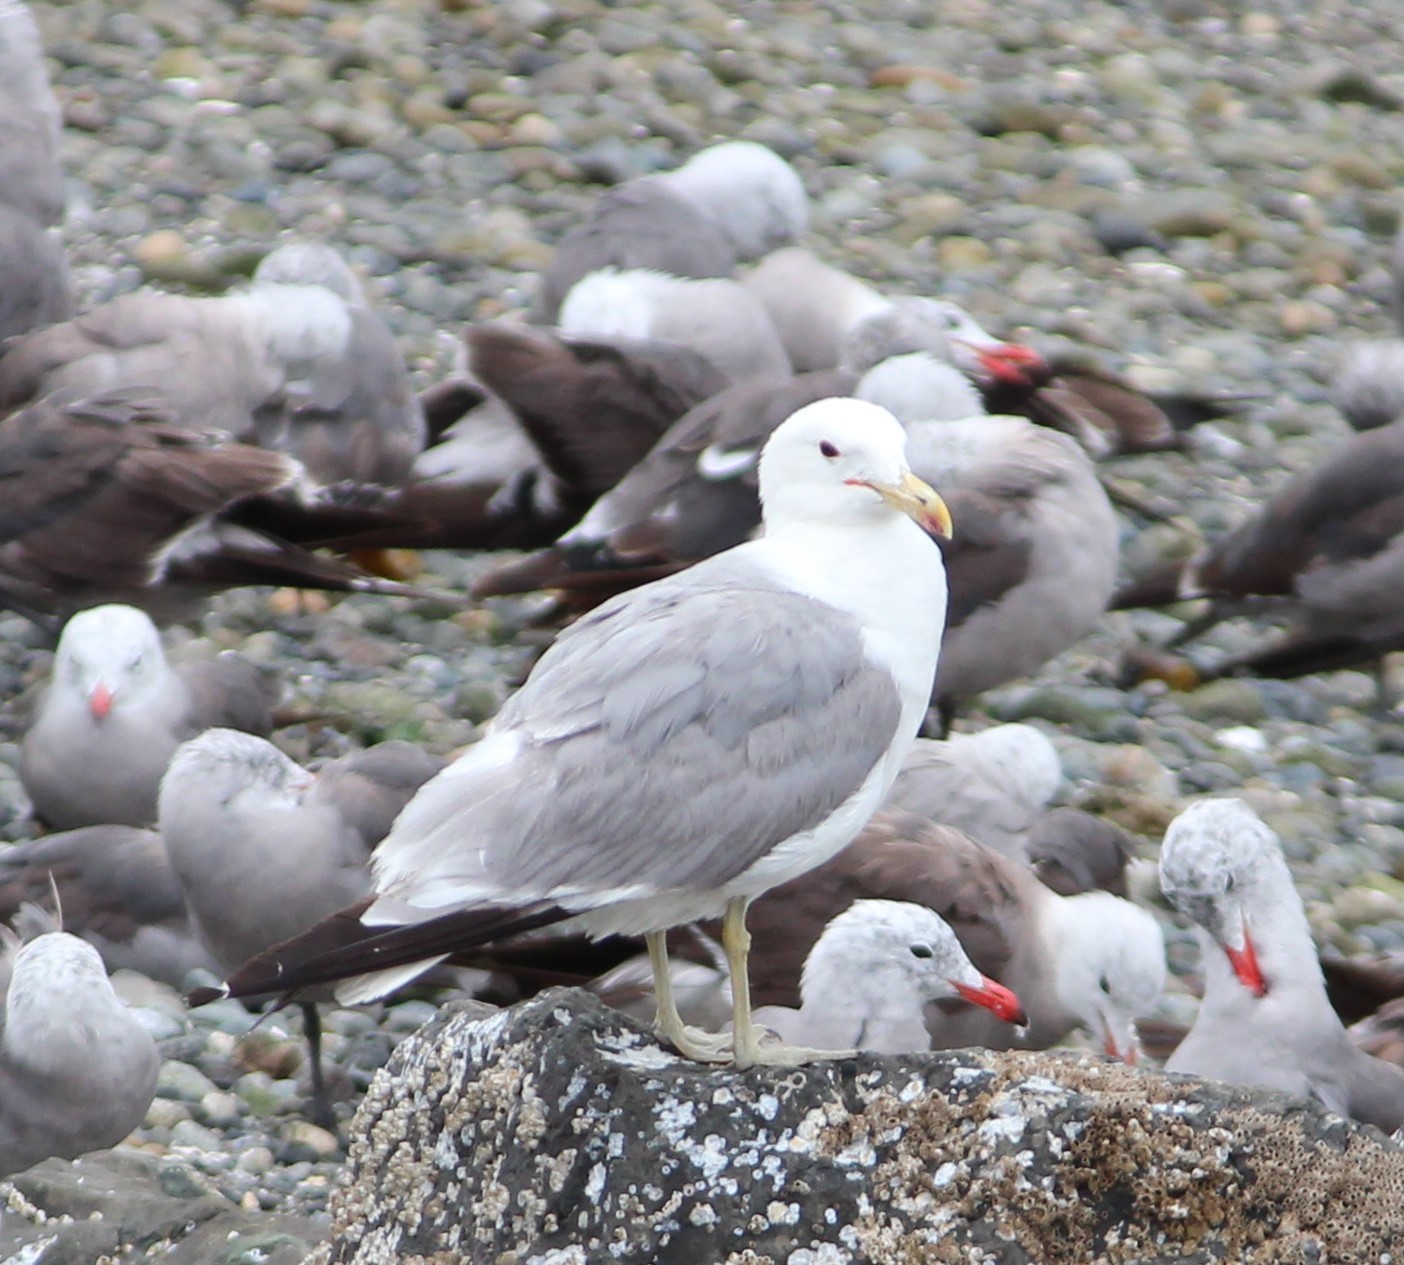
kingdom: Animalia
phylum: Chordata
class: Aves
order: Charadriiformes
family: Laridae
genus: Larus
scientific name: Larus californicus
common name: California gull
